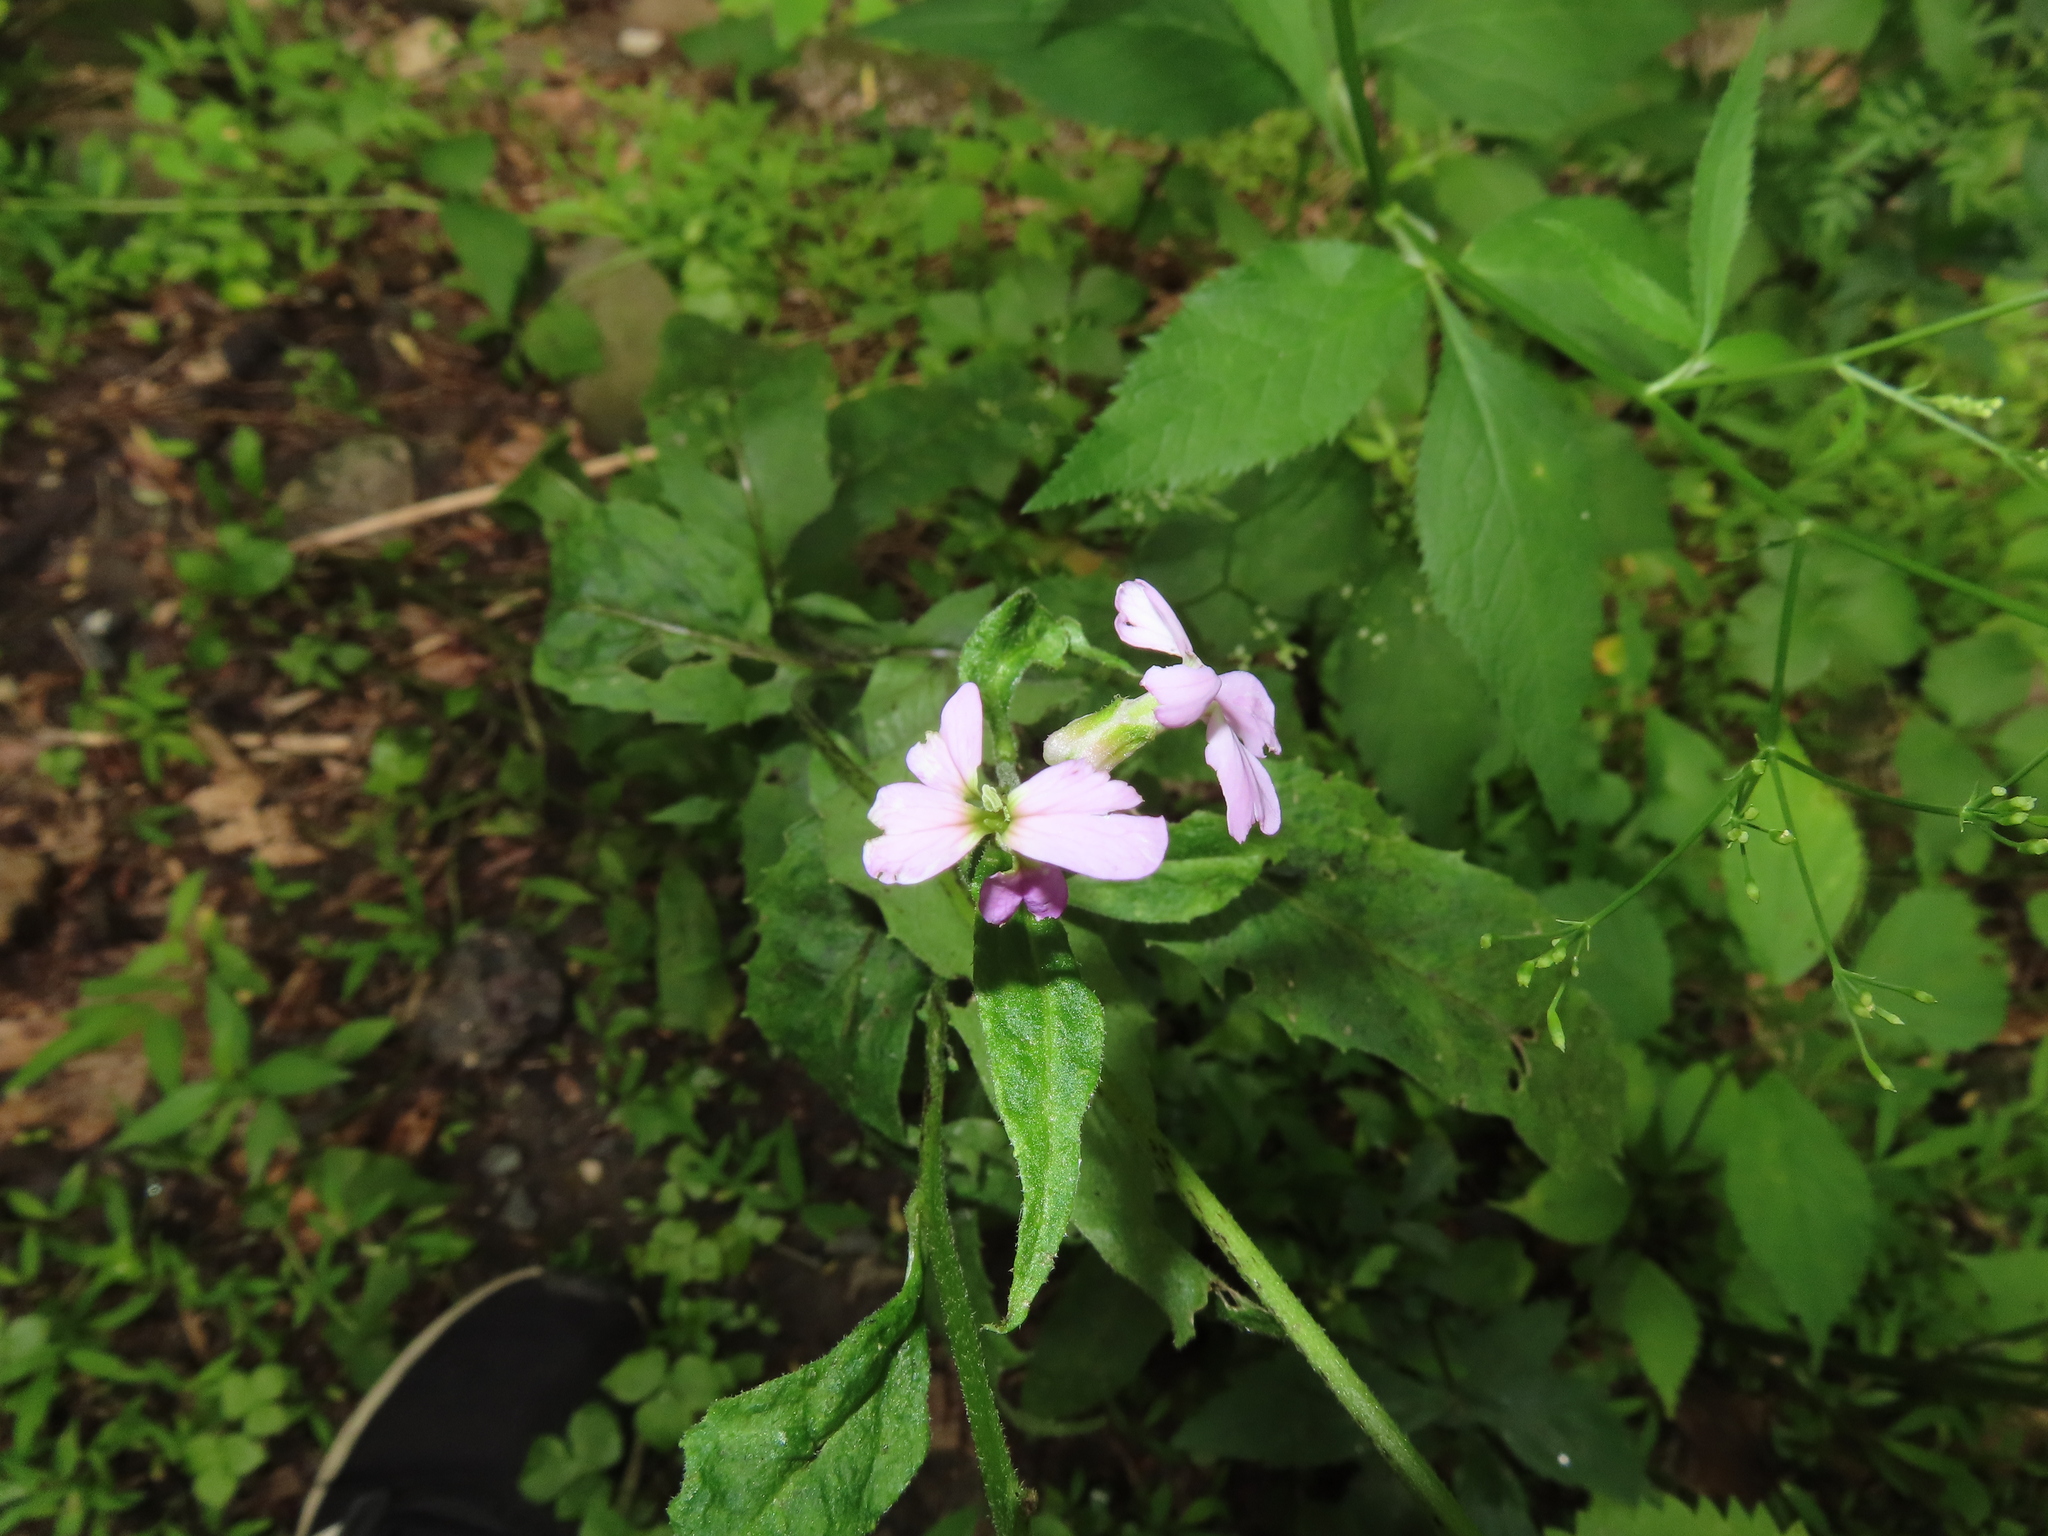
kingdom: Plantae
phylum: Tracheophyta
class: Magnoliopsida
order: Brassicales
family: Brassicaceae
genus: Hesperis
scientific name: Hesperis matronalis
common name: Dame's-violet
